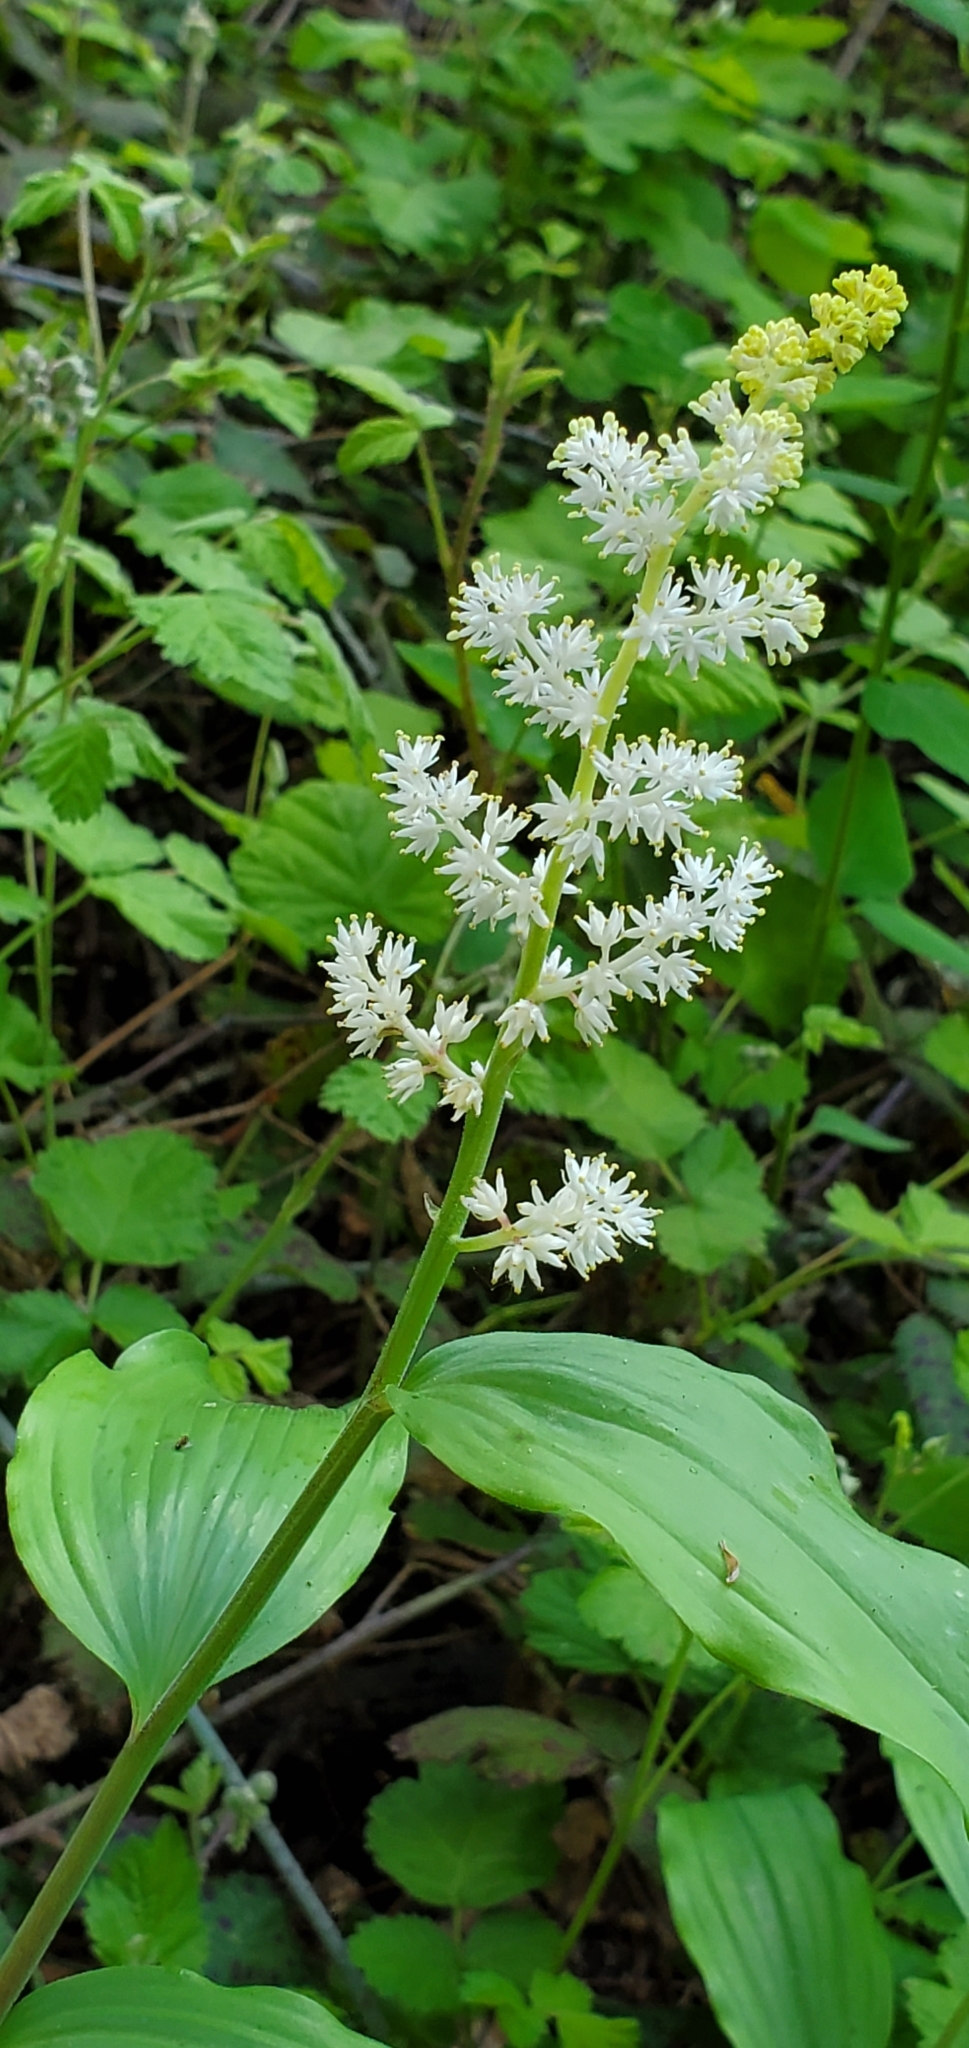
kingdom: Plantae
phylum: Tracheophyta
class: Liliopsida
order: Asparagales
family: Asparagaceae
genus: Maianthemum
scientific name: Maianthemum racemosum
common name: False spikenard
